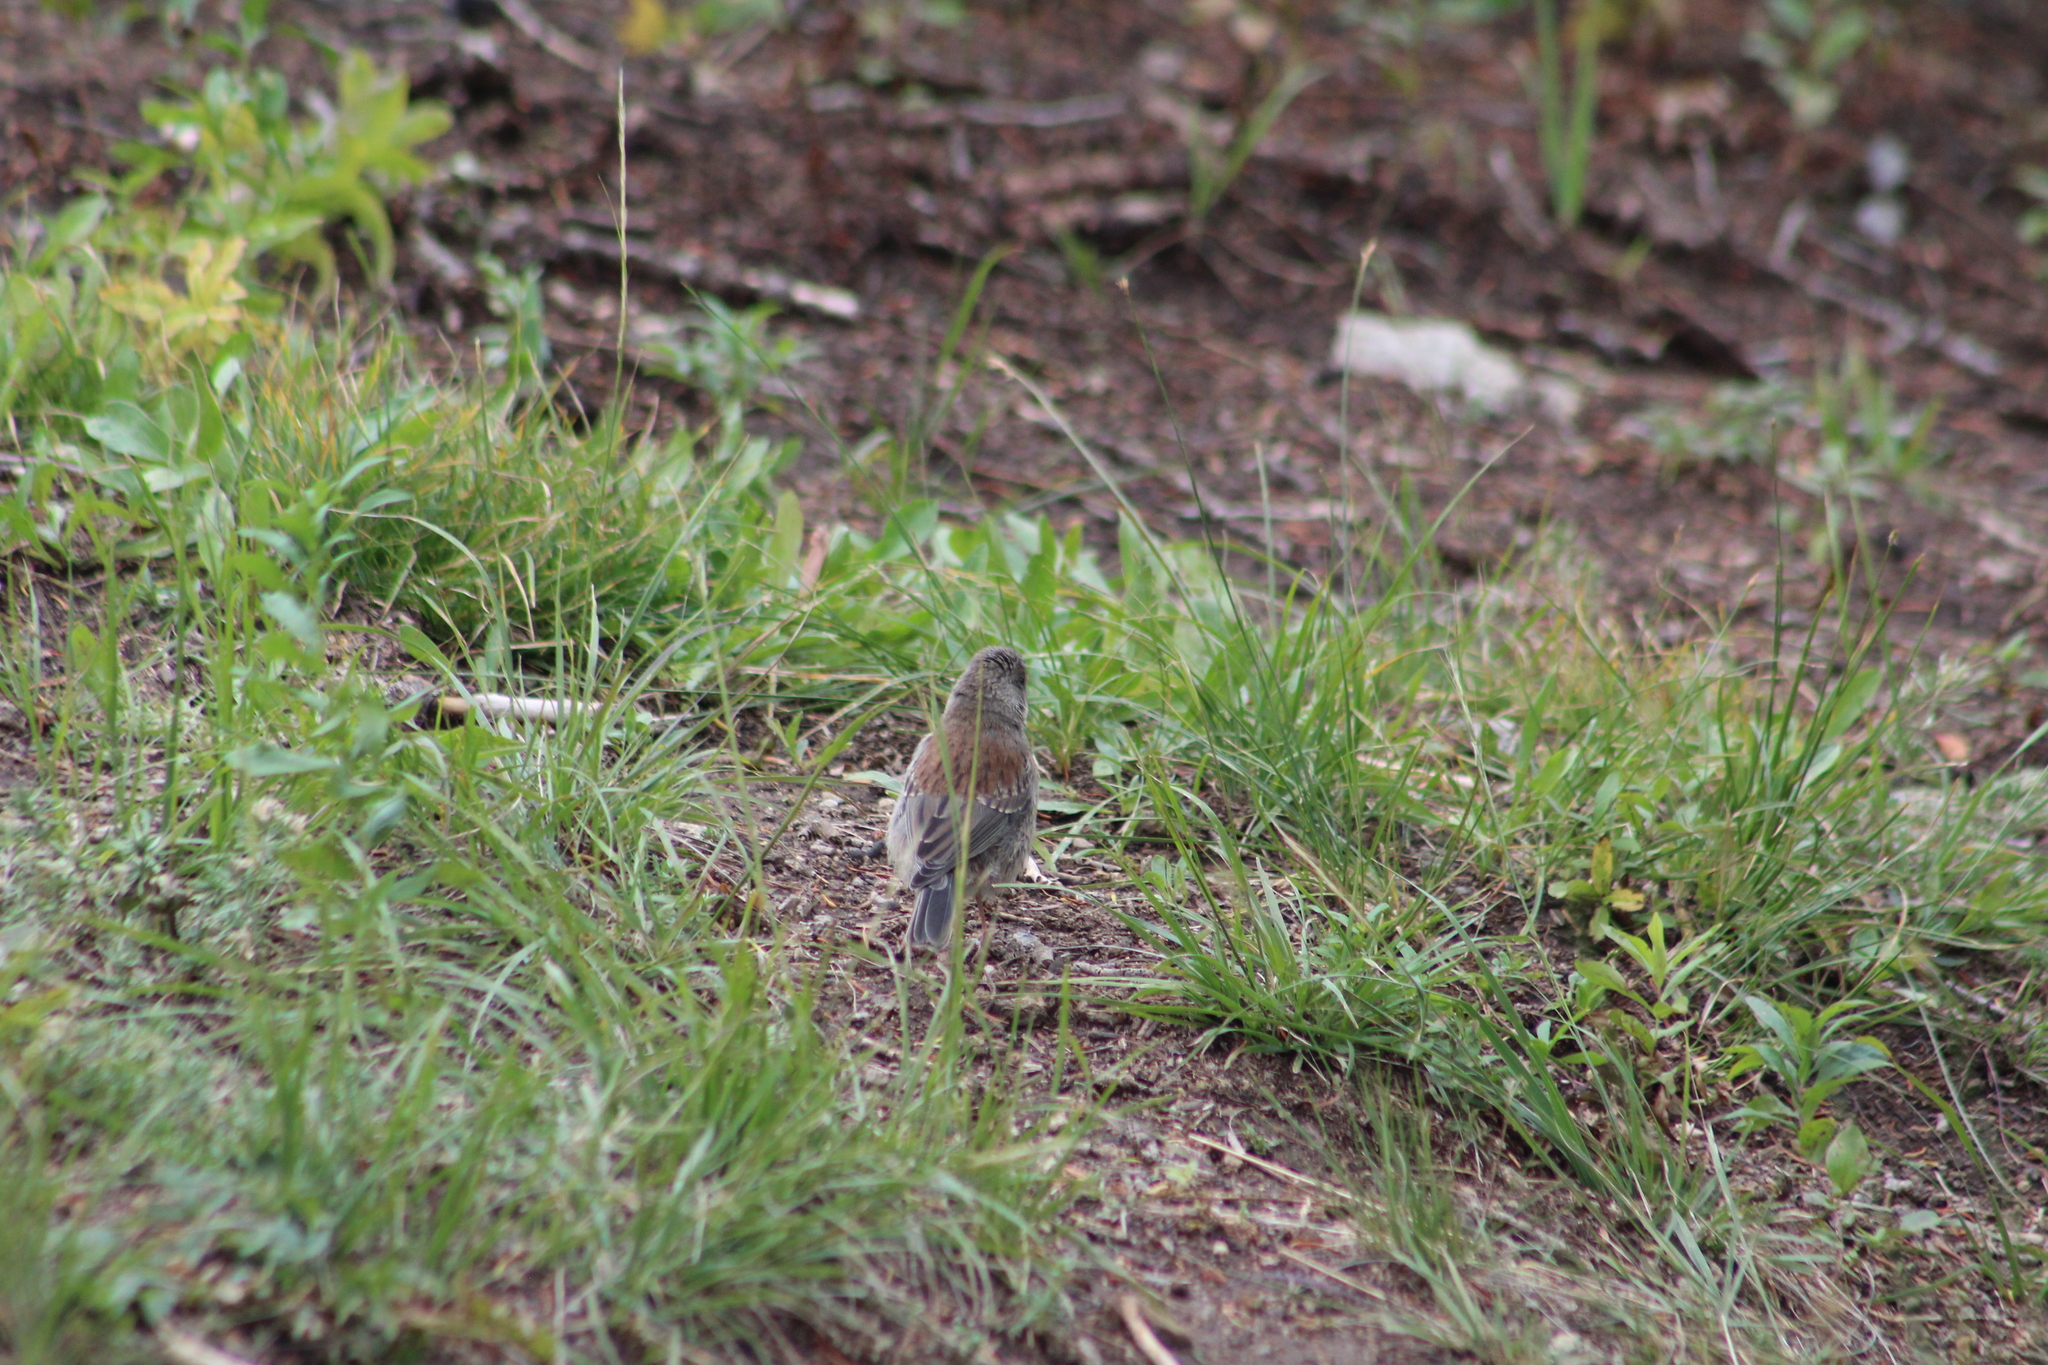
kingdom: Animalia
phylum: Chordata
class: Aves
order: Passeriformes
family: Passerellidae
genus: Junco
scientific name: Junco hyemalis
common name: Dark-eyed junco
